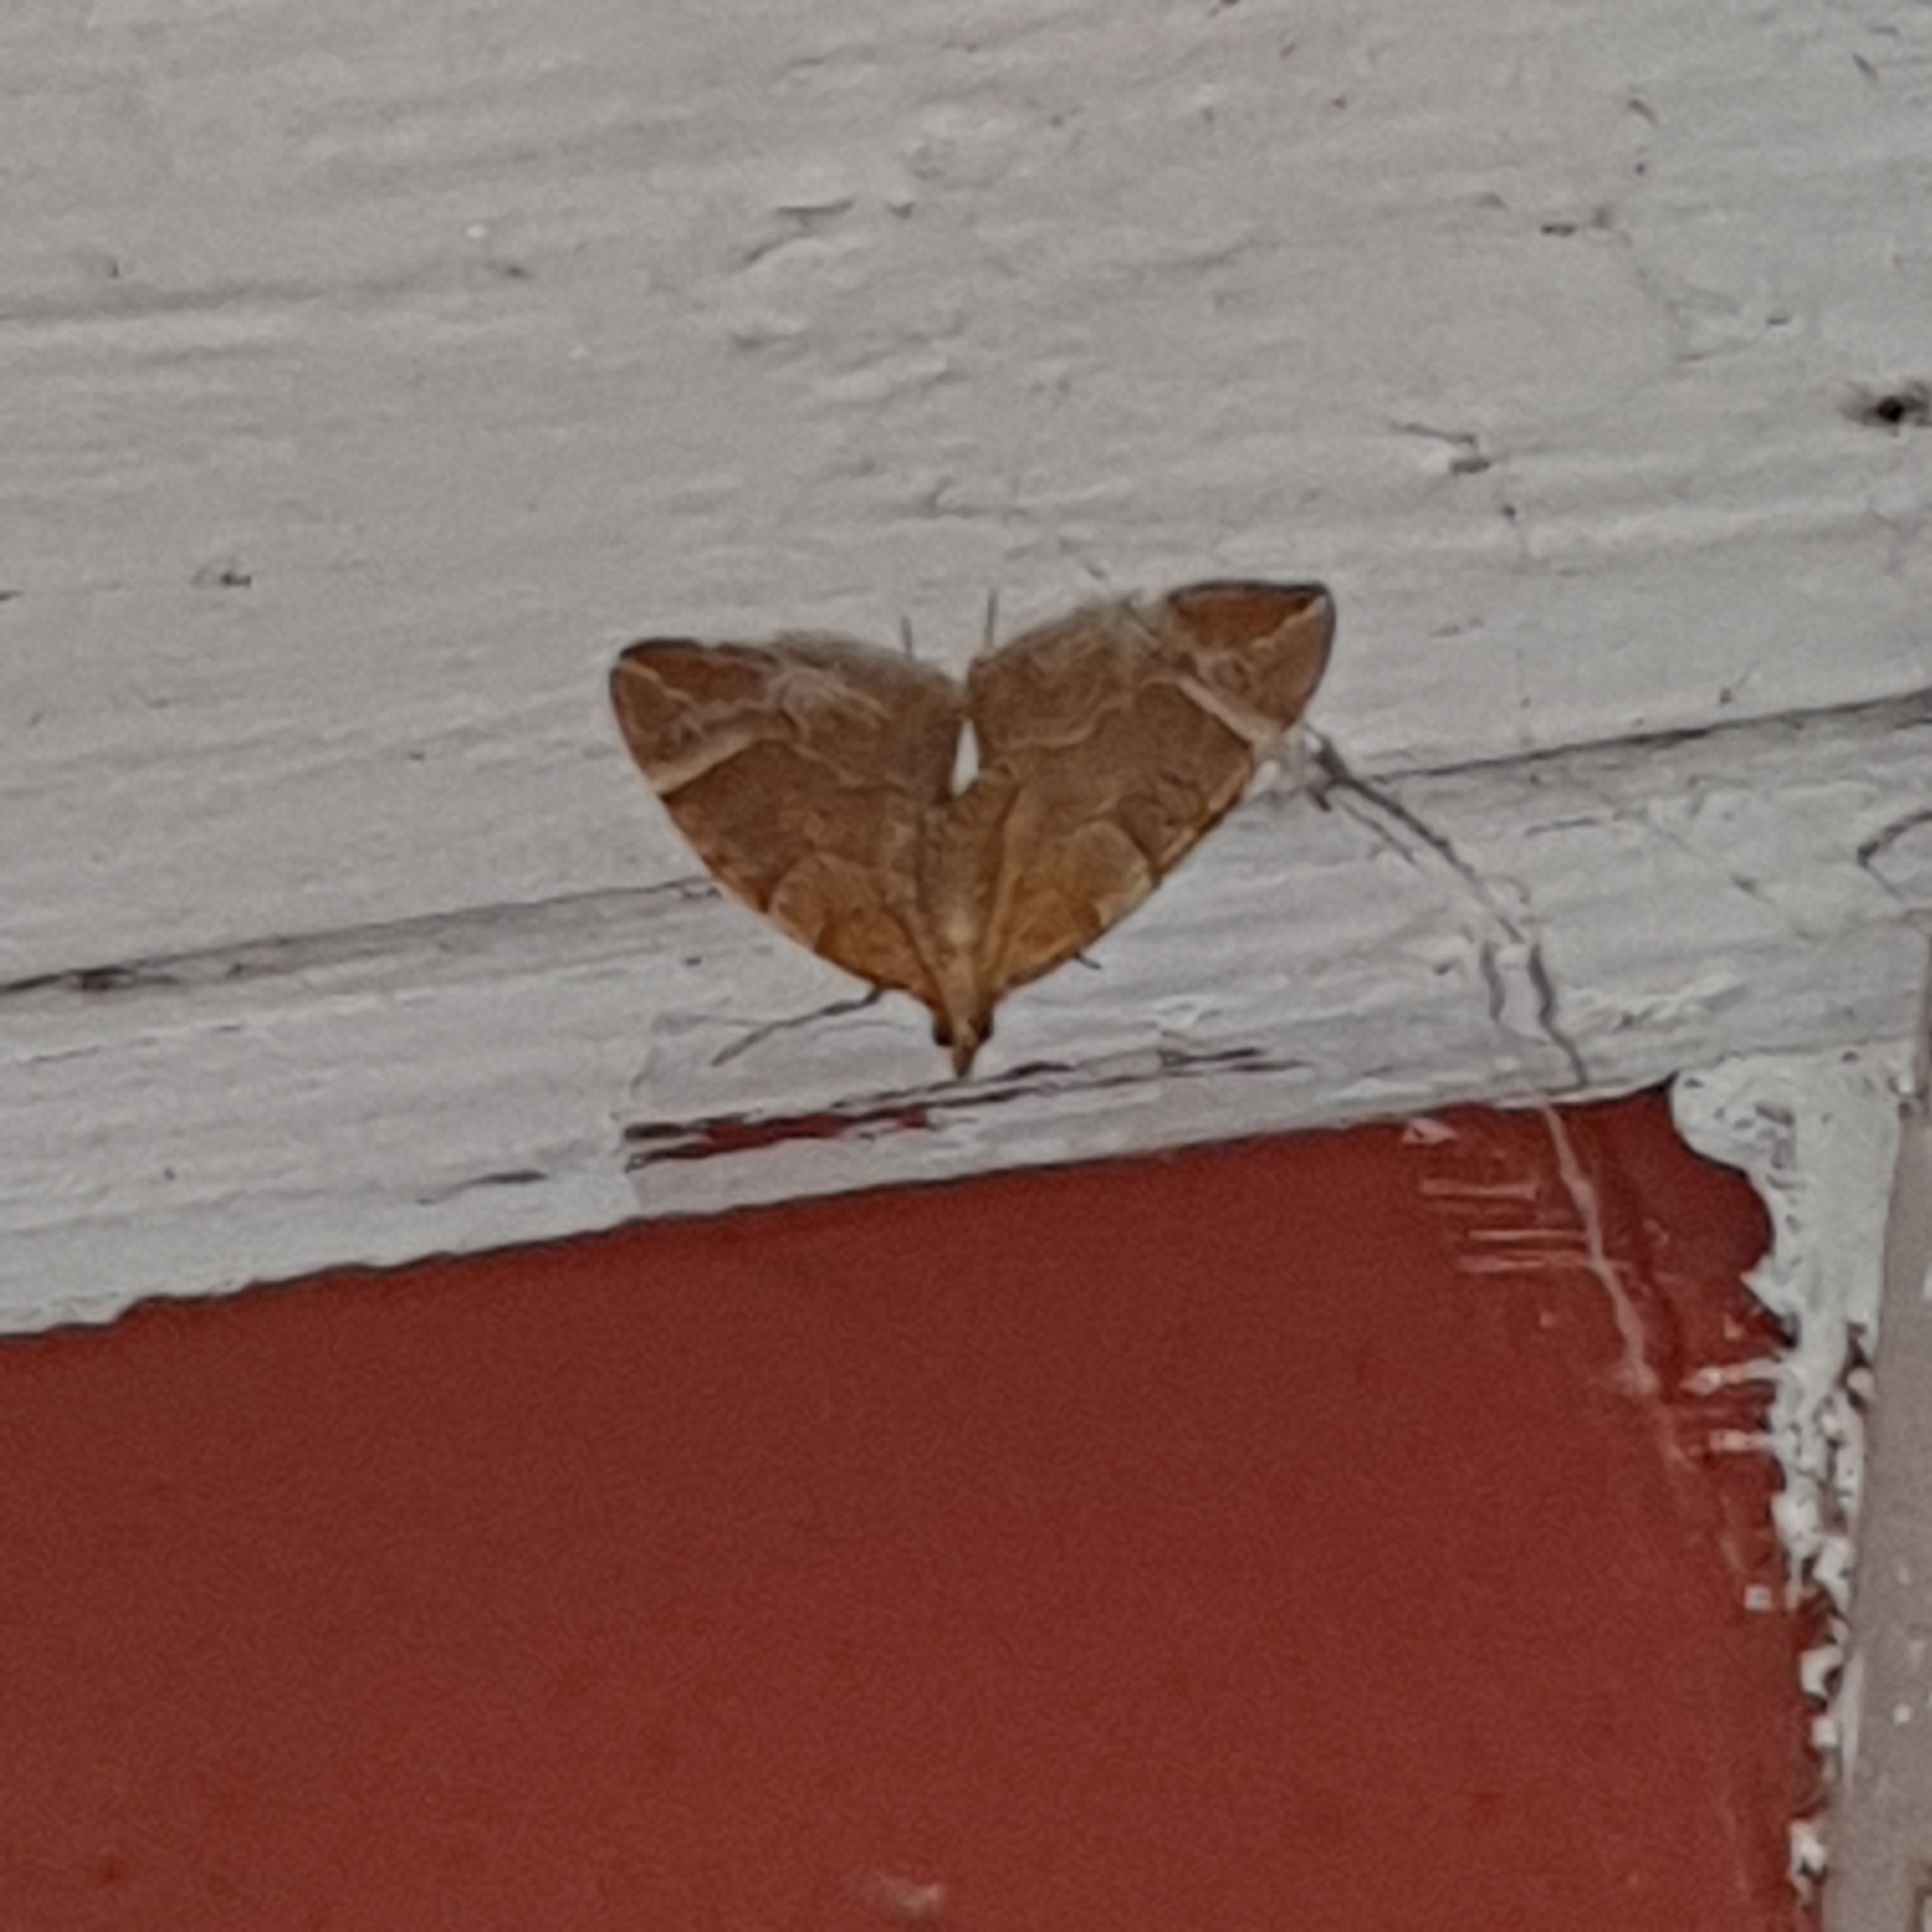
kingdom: Animalia
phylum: Arthropoda
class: Insecta
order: Lepidoptera
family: Geometridae
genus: Eulithis
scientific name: Eulithis testata
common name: Chevron
